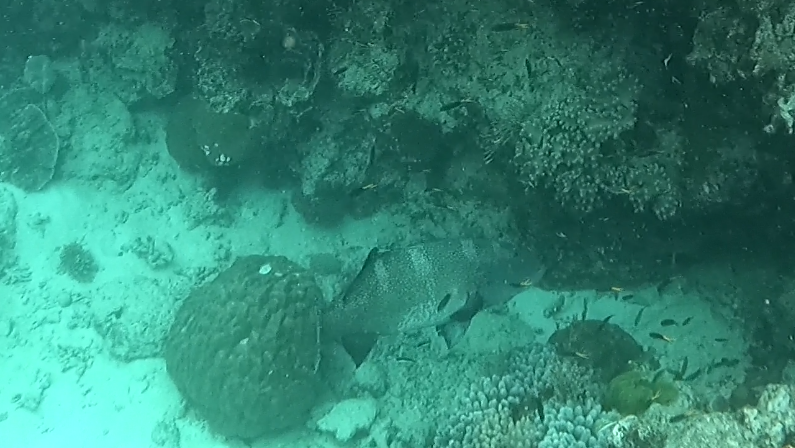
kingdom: Animalia
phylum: Chordata
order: Perciformes
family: Serranidae
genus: Plectropomus
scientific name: Plectropomus laevis
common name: Chinese footballer
